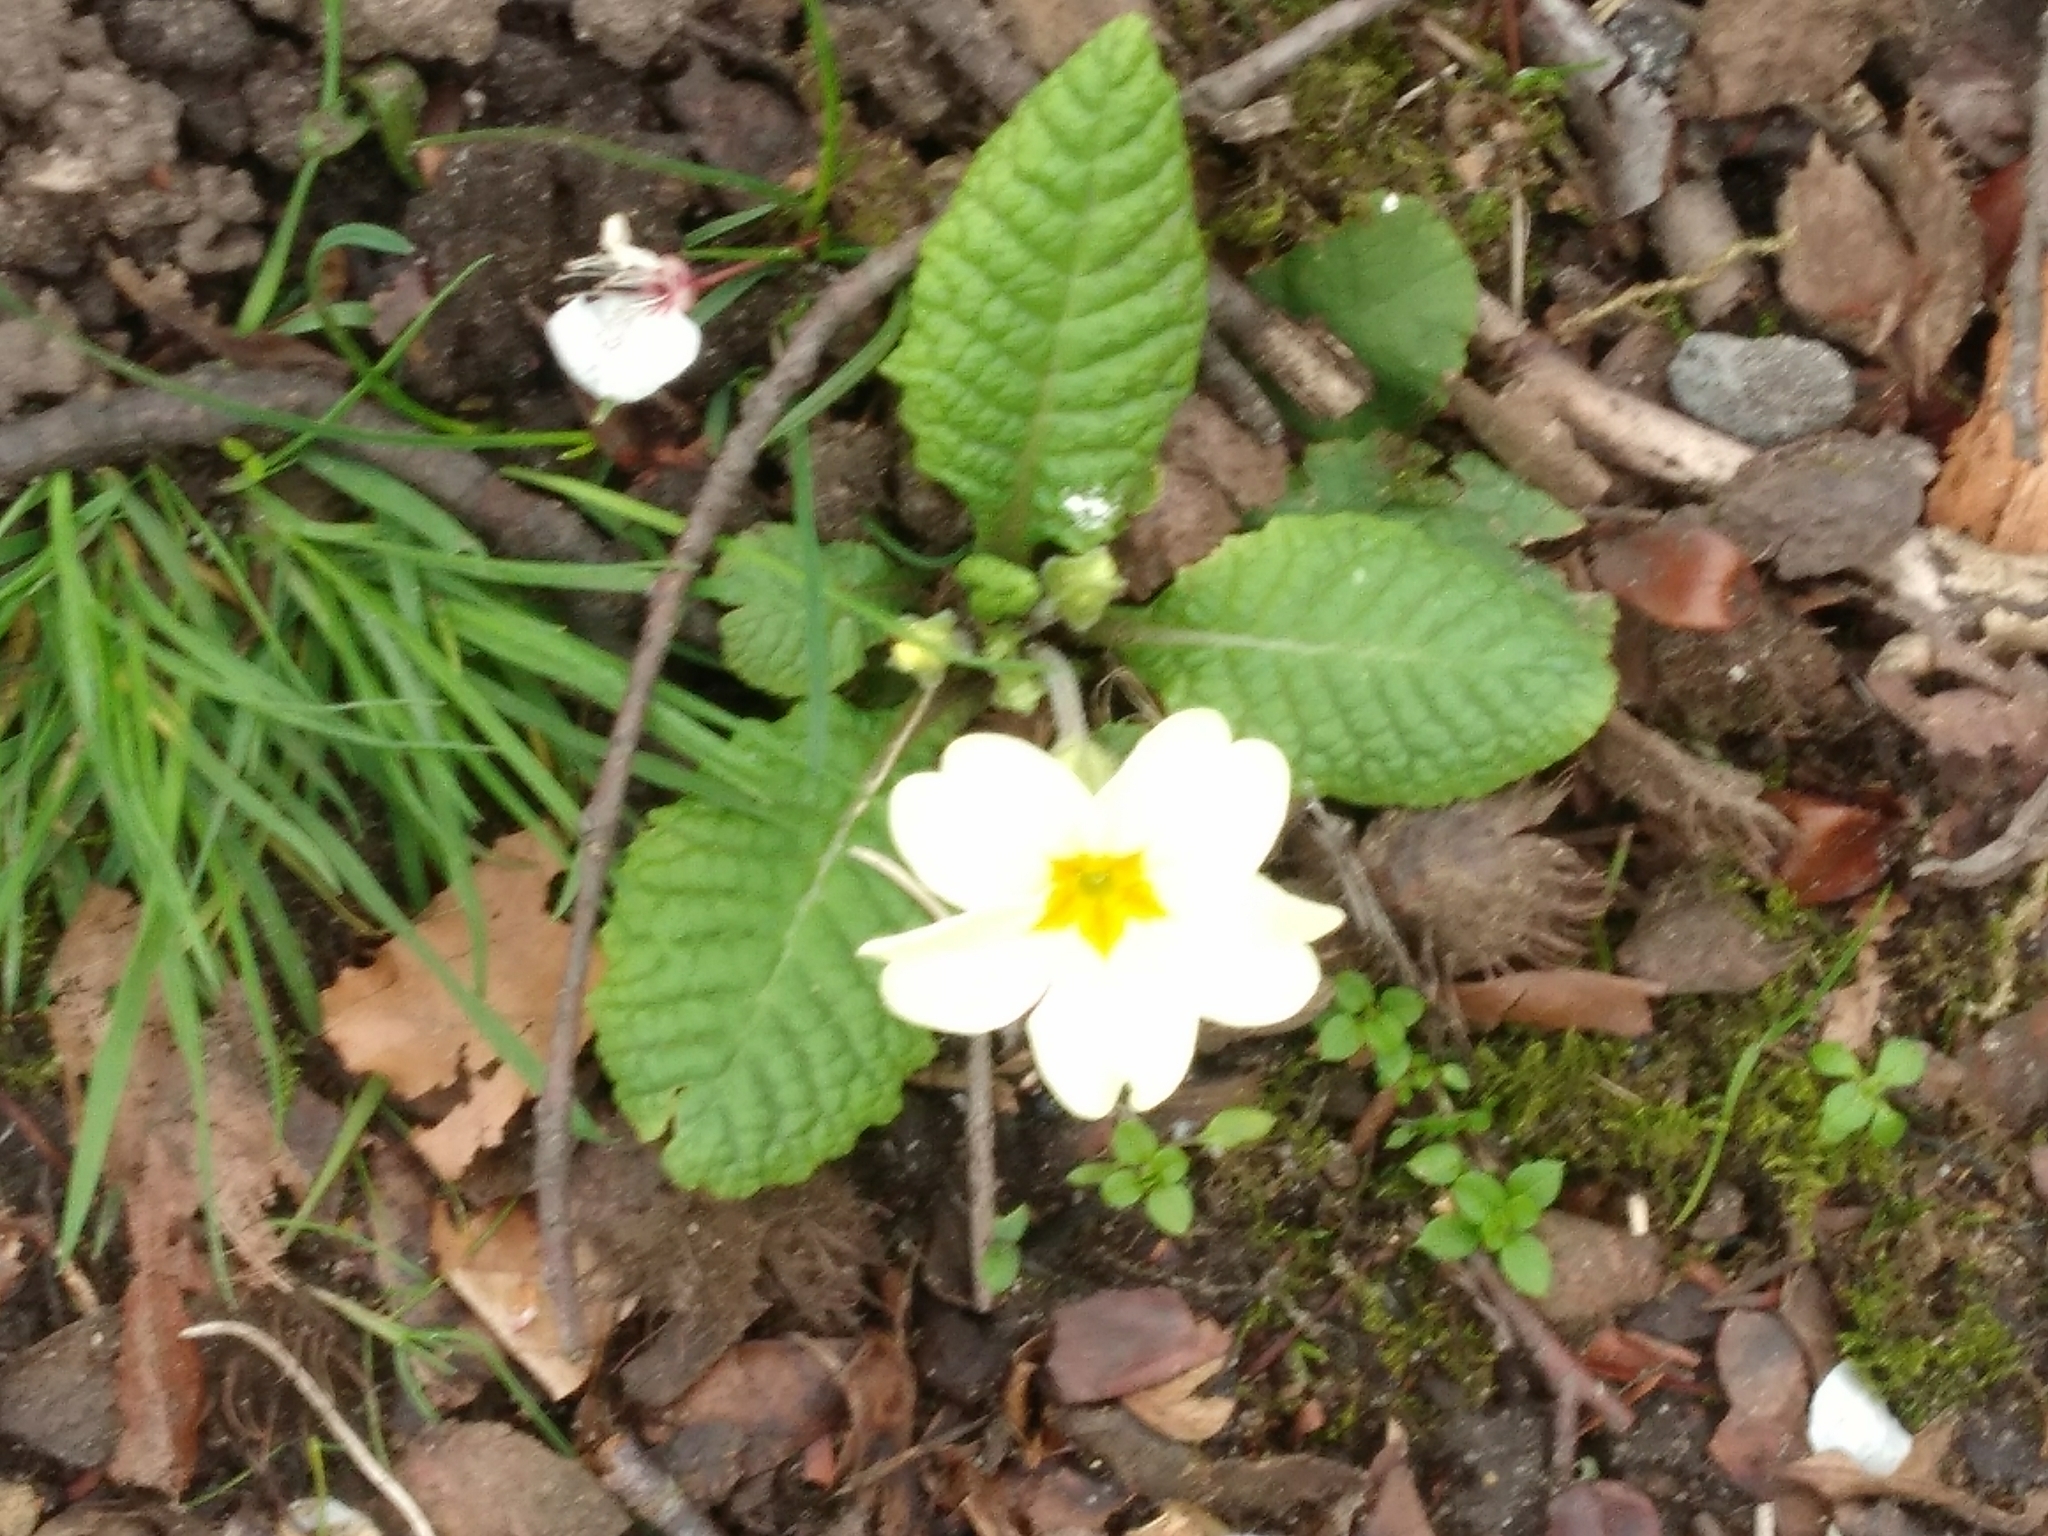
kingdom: Plantae
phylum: Tracheophyta
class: Magnoliopsida
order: Ericales
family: Primulaceae
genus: Primula
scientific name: Primula vulgaris
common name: Primrose
